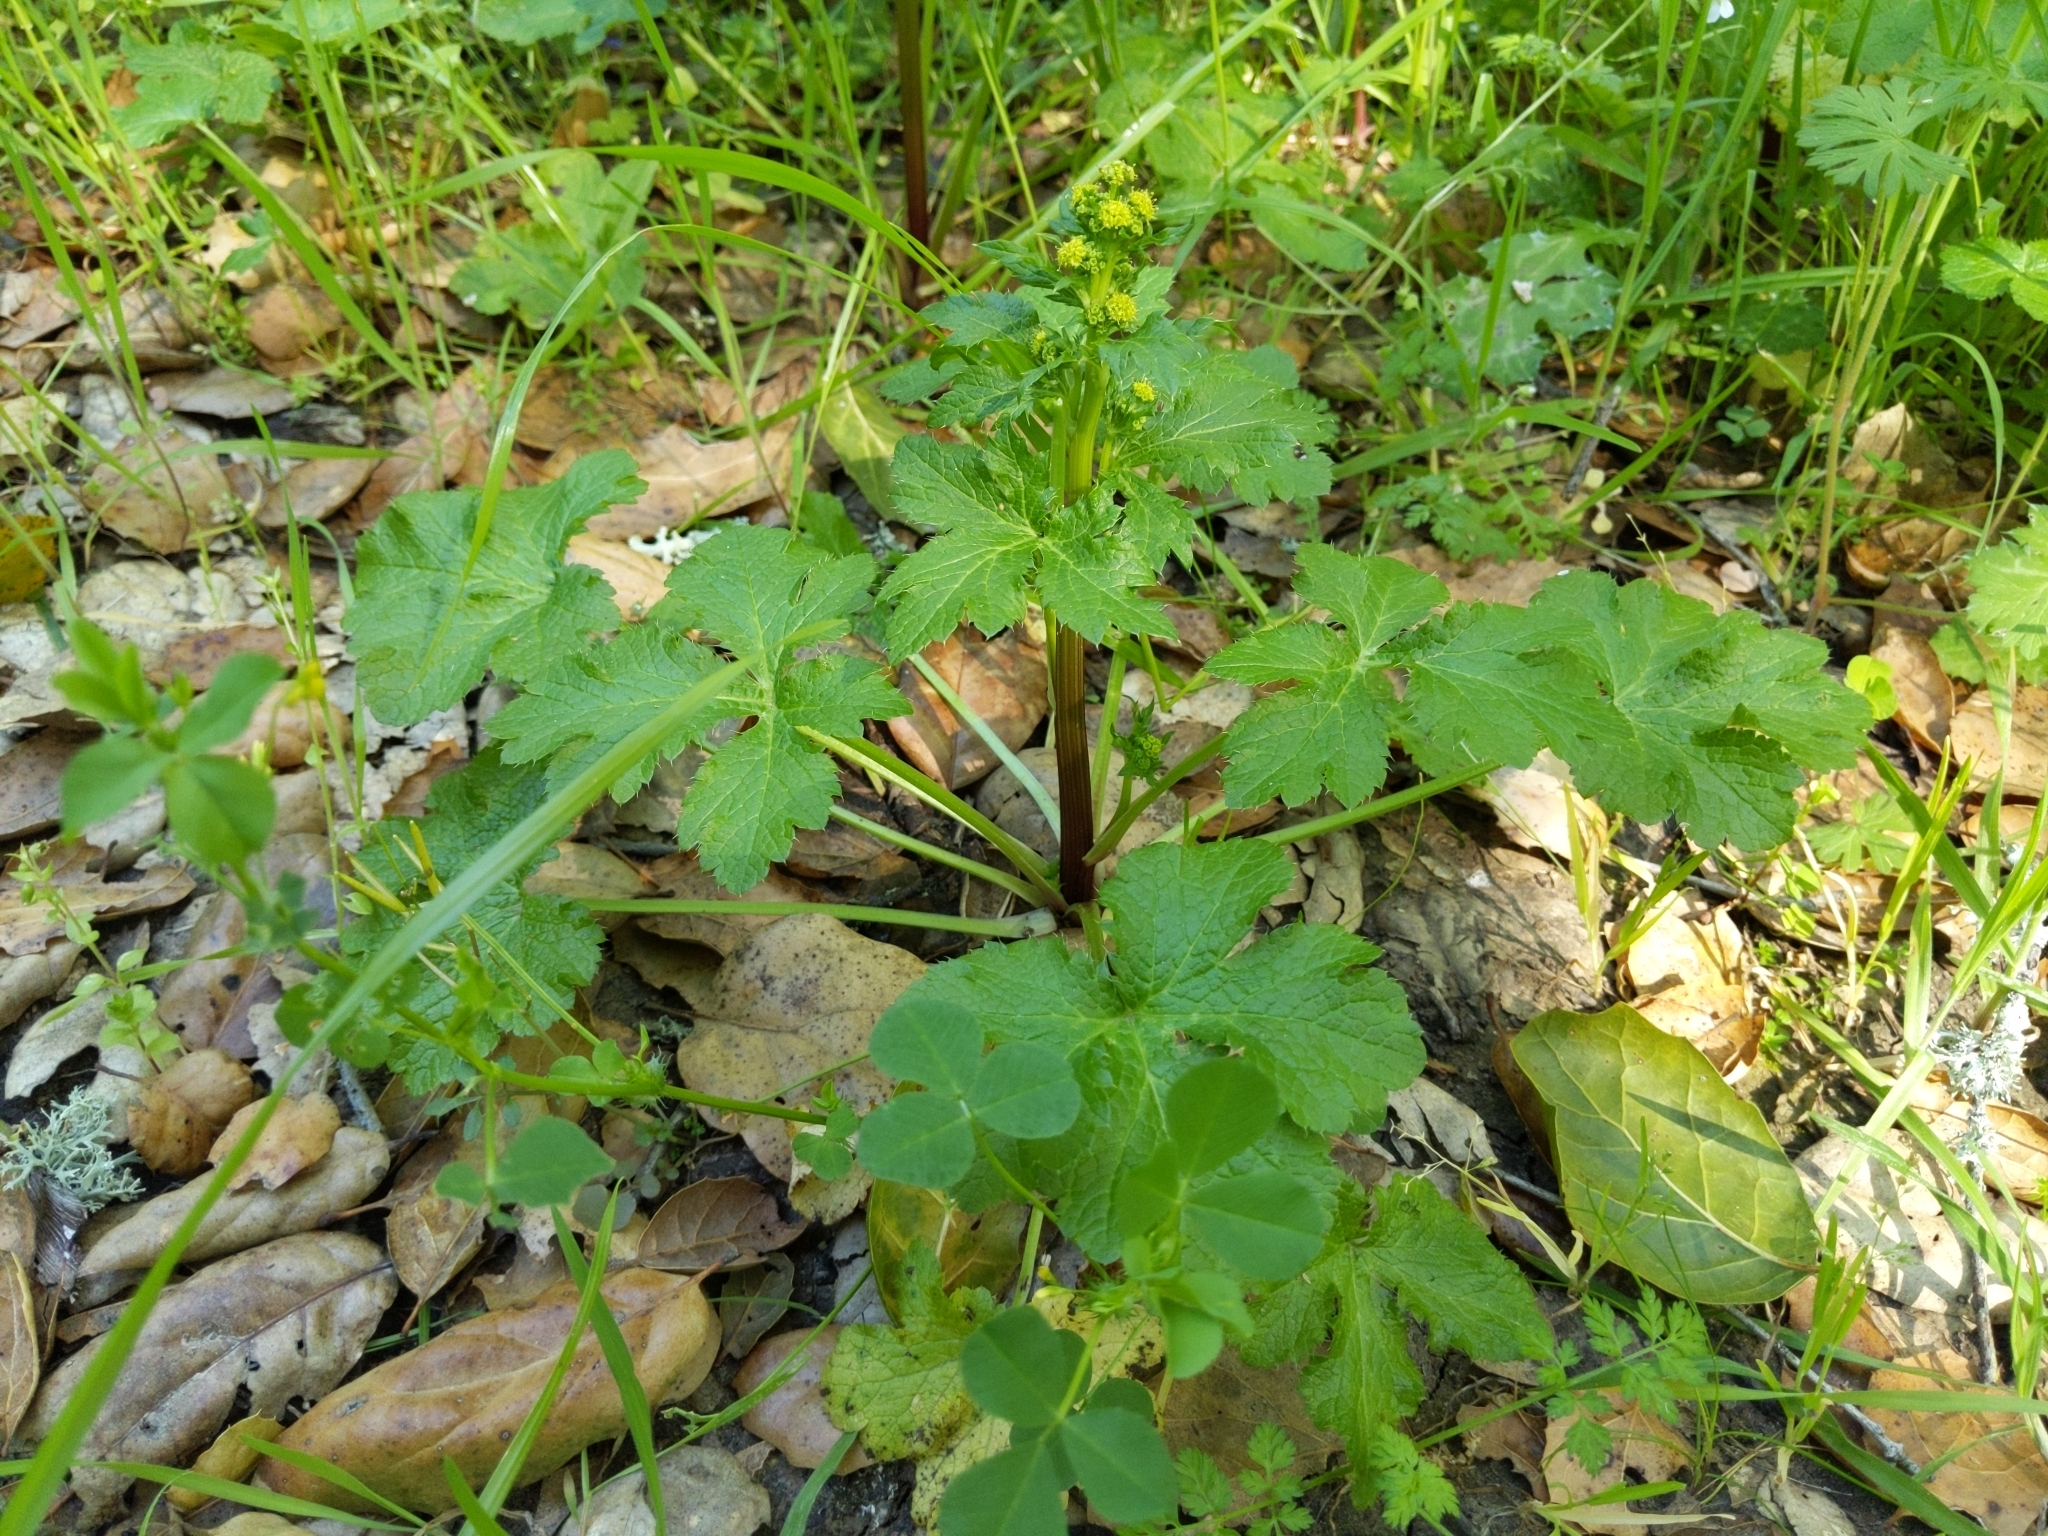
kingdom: Plantae
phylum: Tracheophyta
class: Magnoliopsida
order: Apiales
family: Apiaceae
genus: Sanicula
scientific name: Sanicula crassicaulis
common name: Western snakeroot
